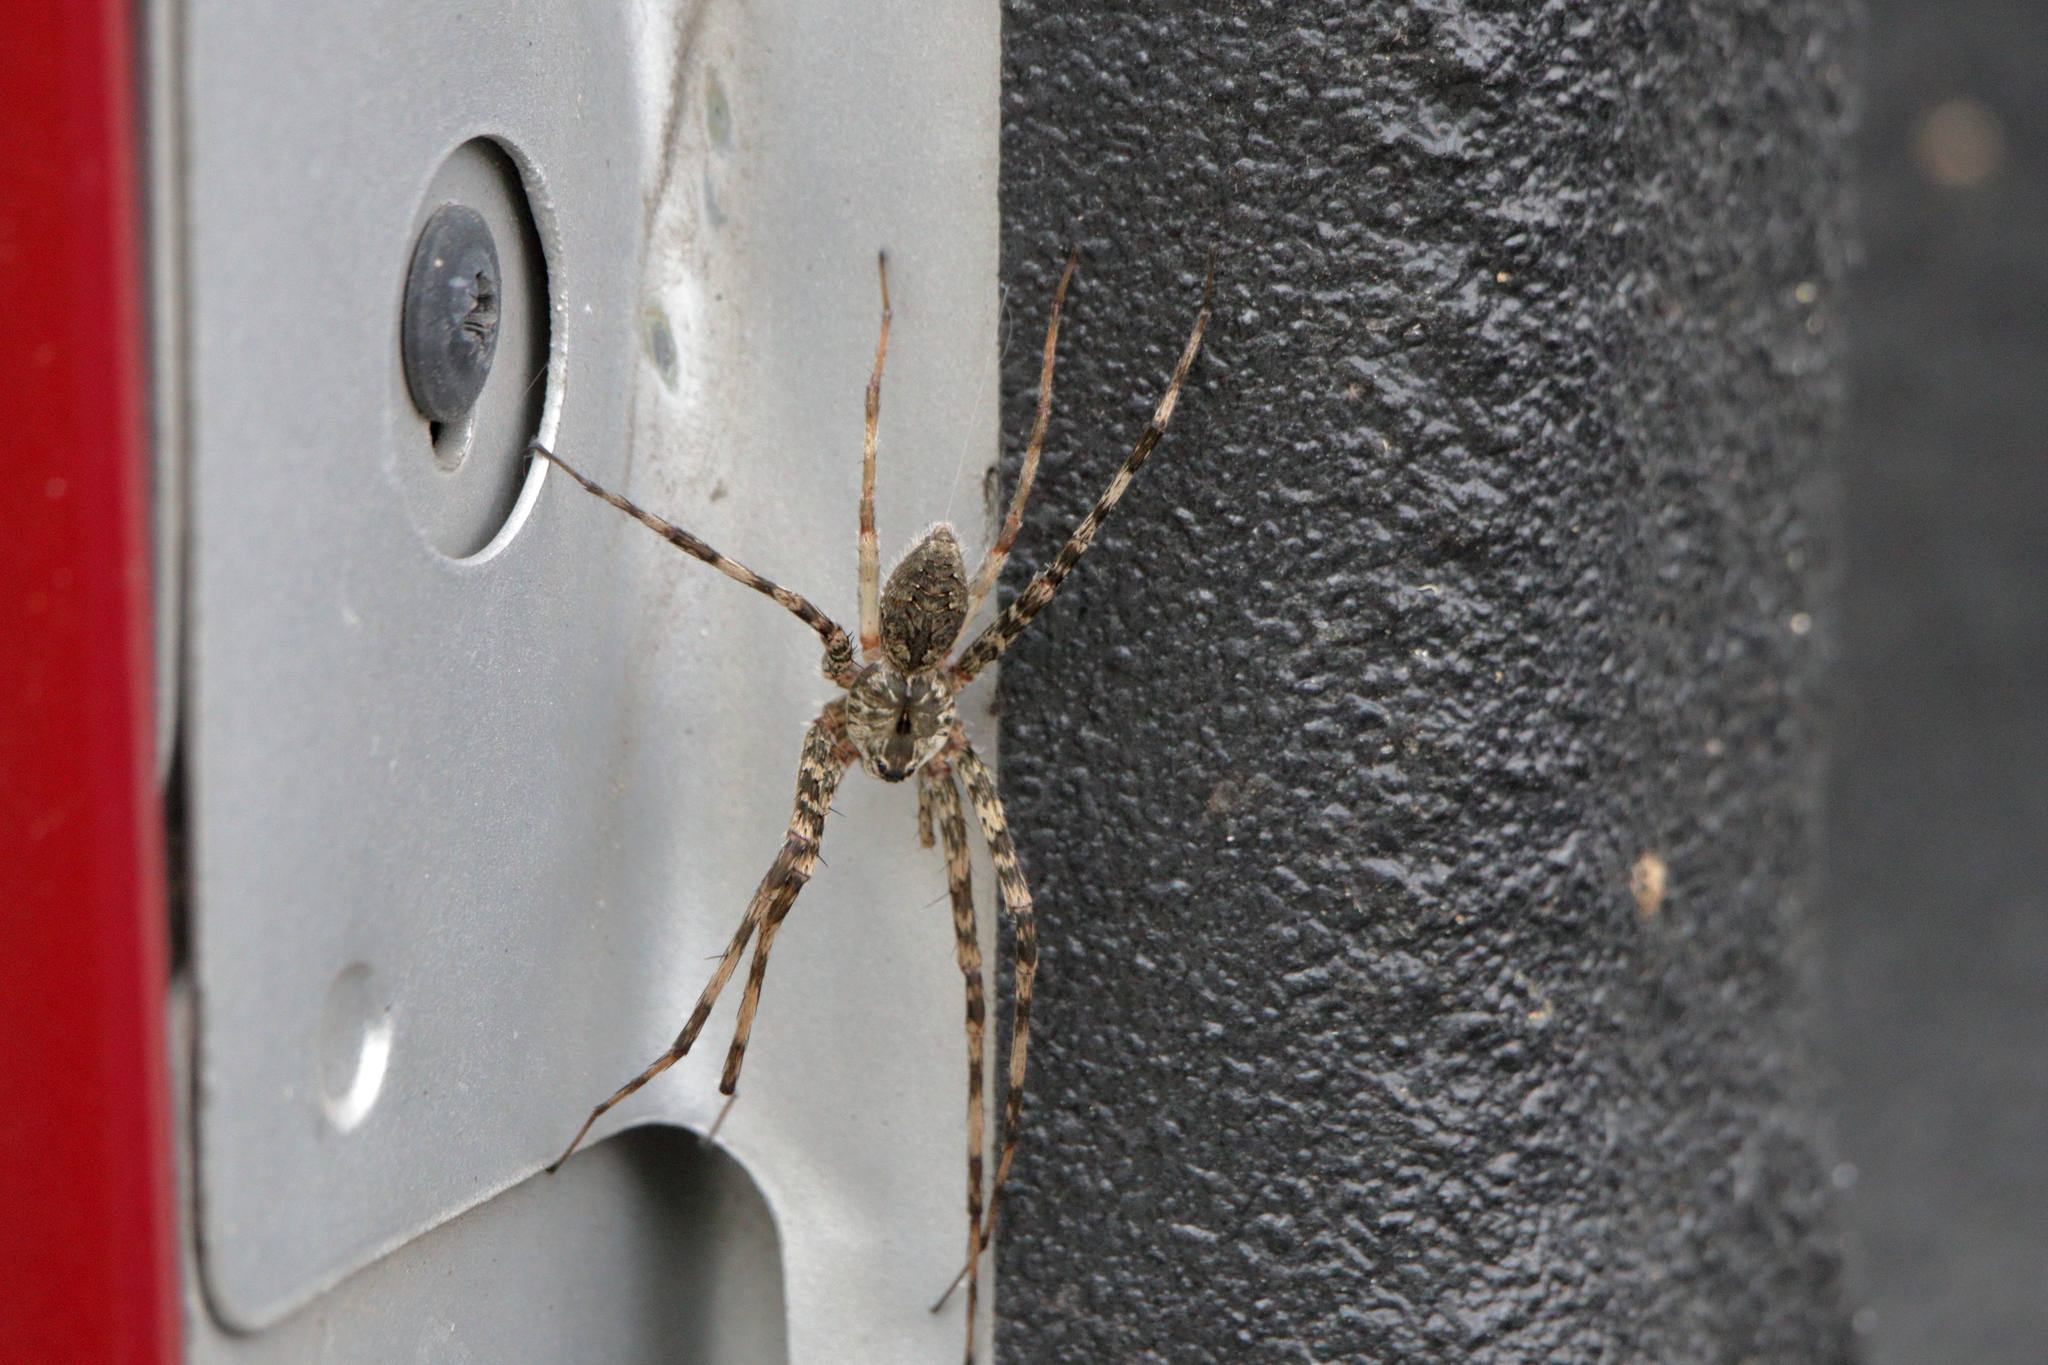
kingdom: Animalia
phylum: Arthropoda
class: Arachnida
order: Araneae
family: Pisauridae
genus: Dolomedes
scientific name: Dolomedes albineus
